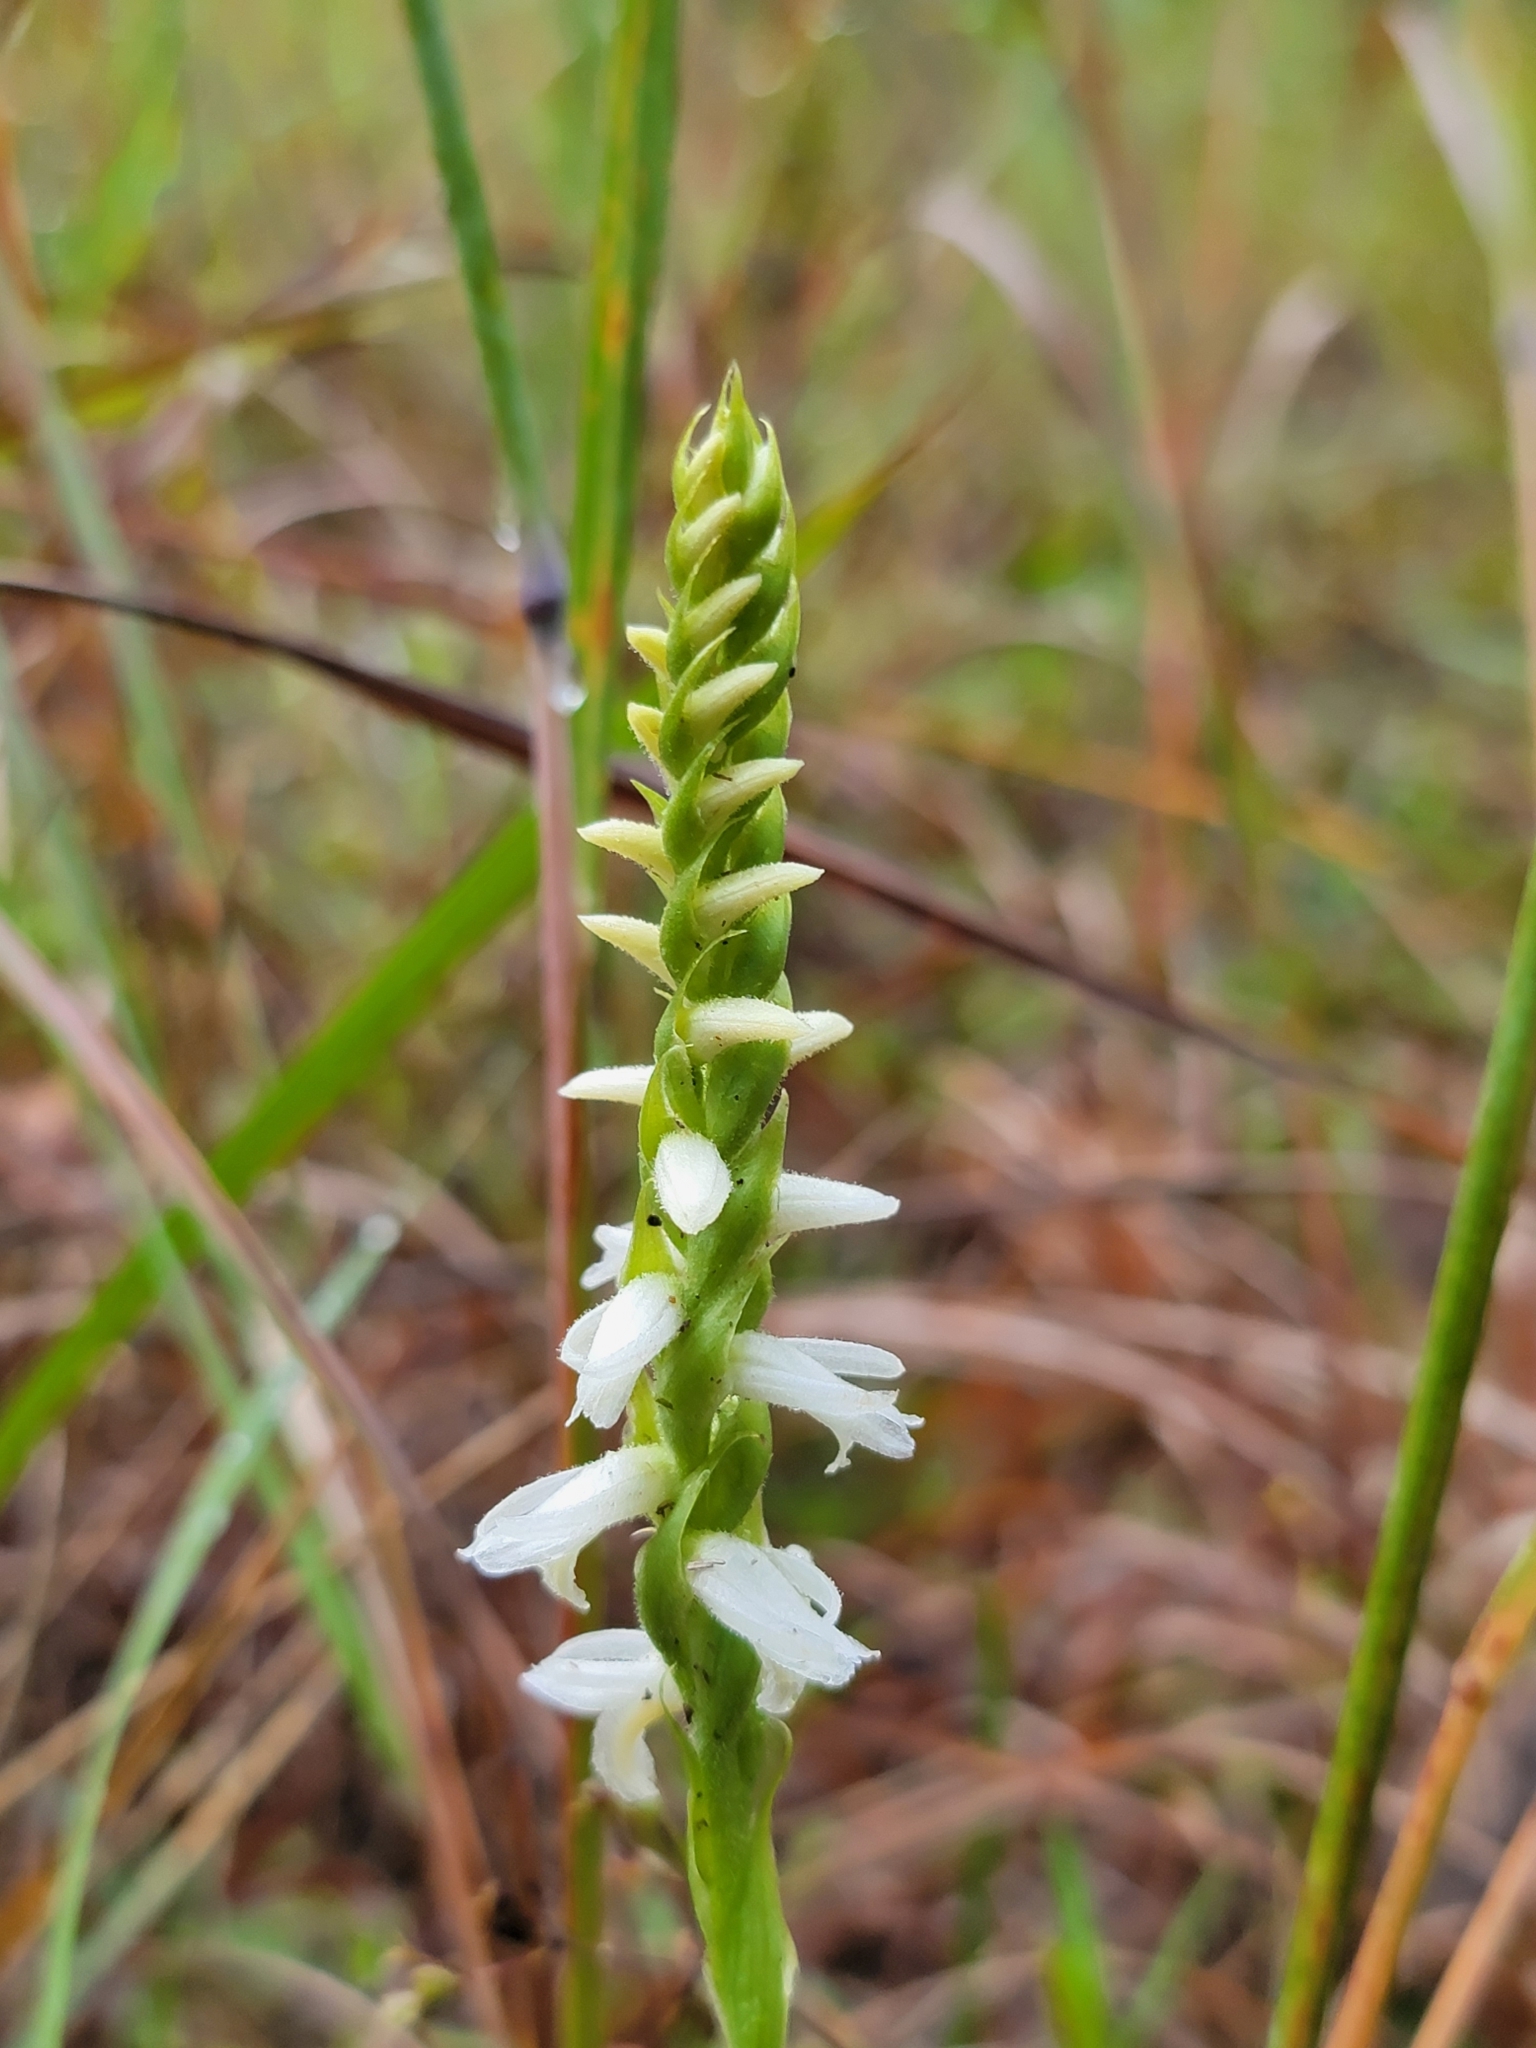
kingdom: Plantae
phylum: Tracheophyta
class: Liliopsida
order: Asparagales
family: Orchidaceae
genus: Spiranthes
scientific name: Spiranthes magnicamporum
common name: Great plains ladies'-tresses
